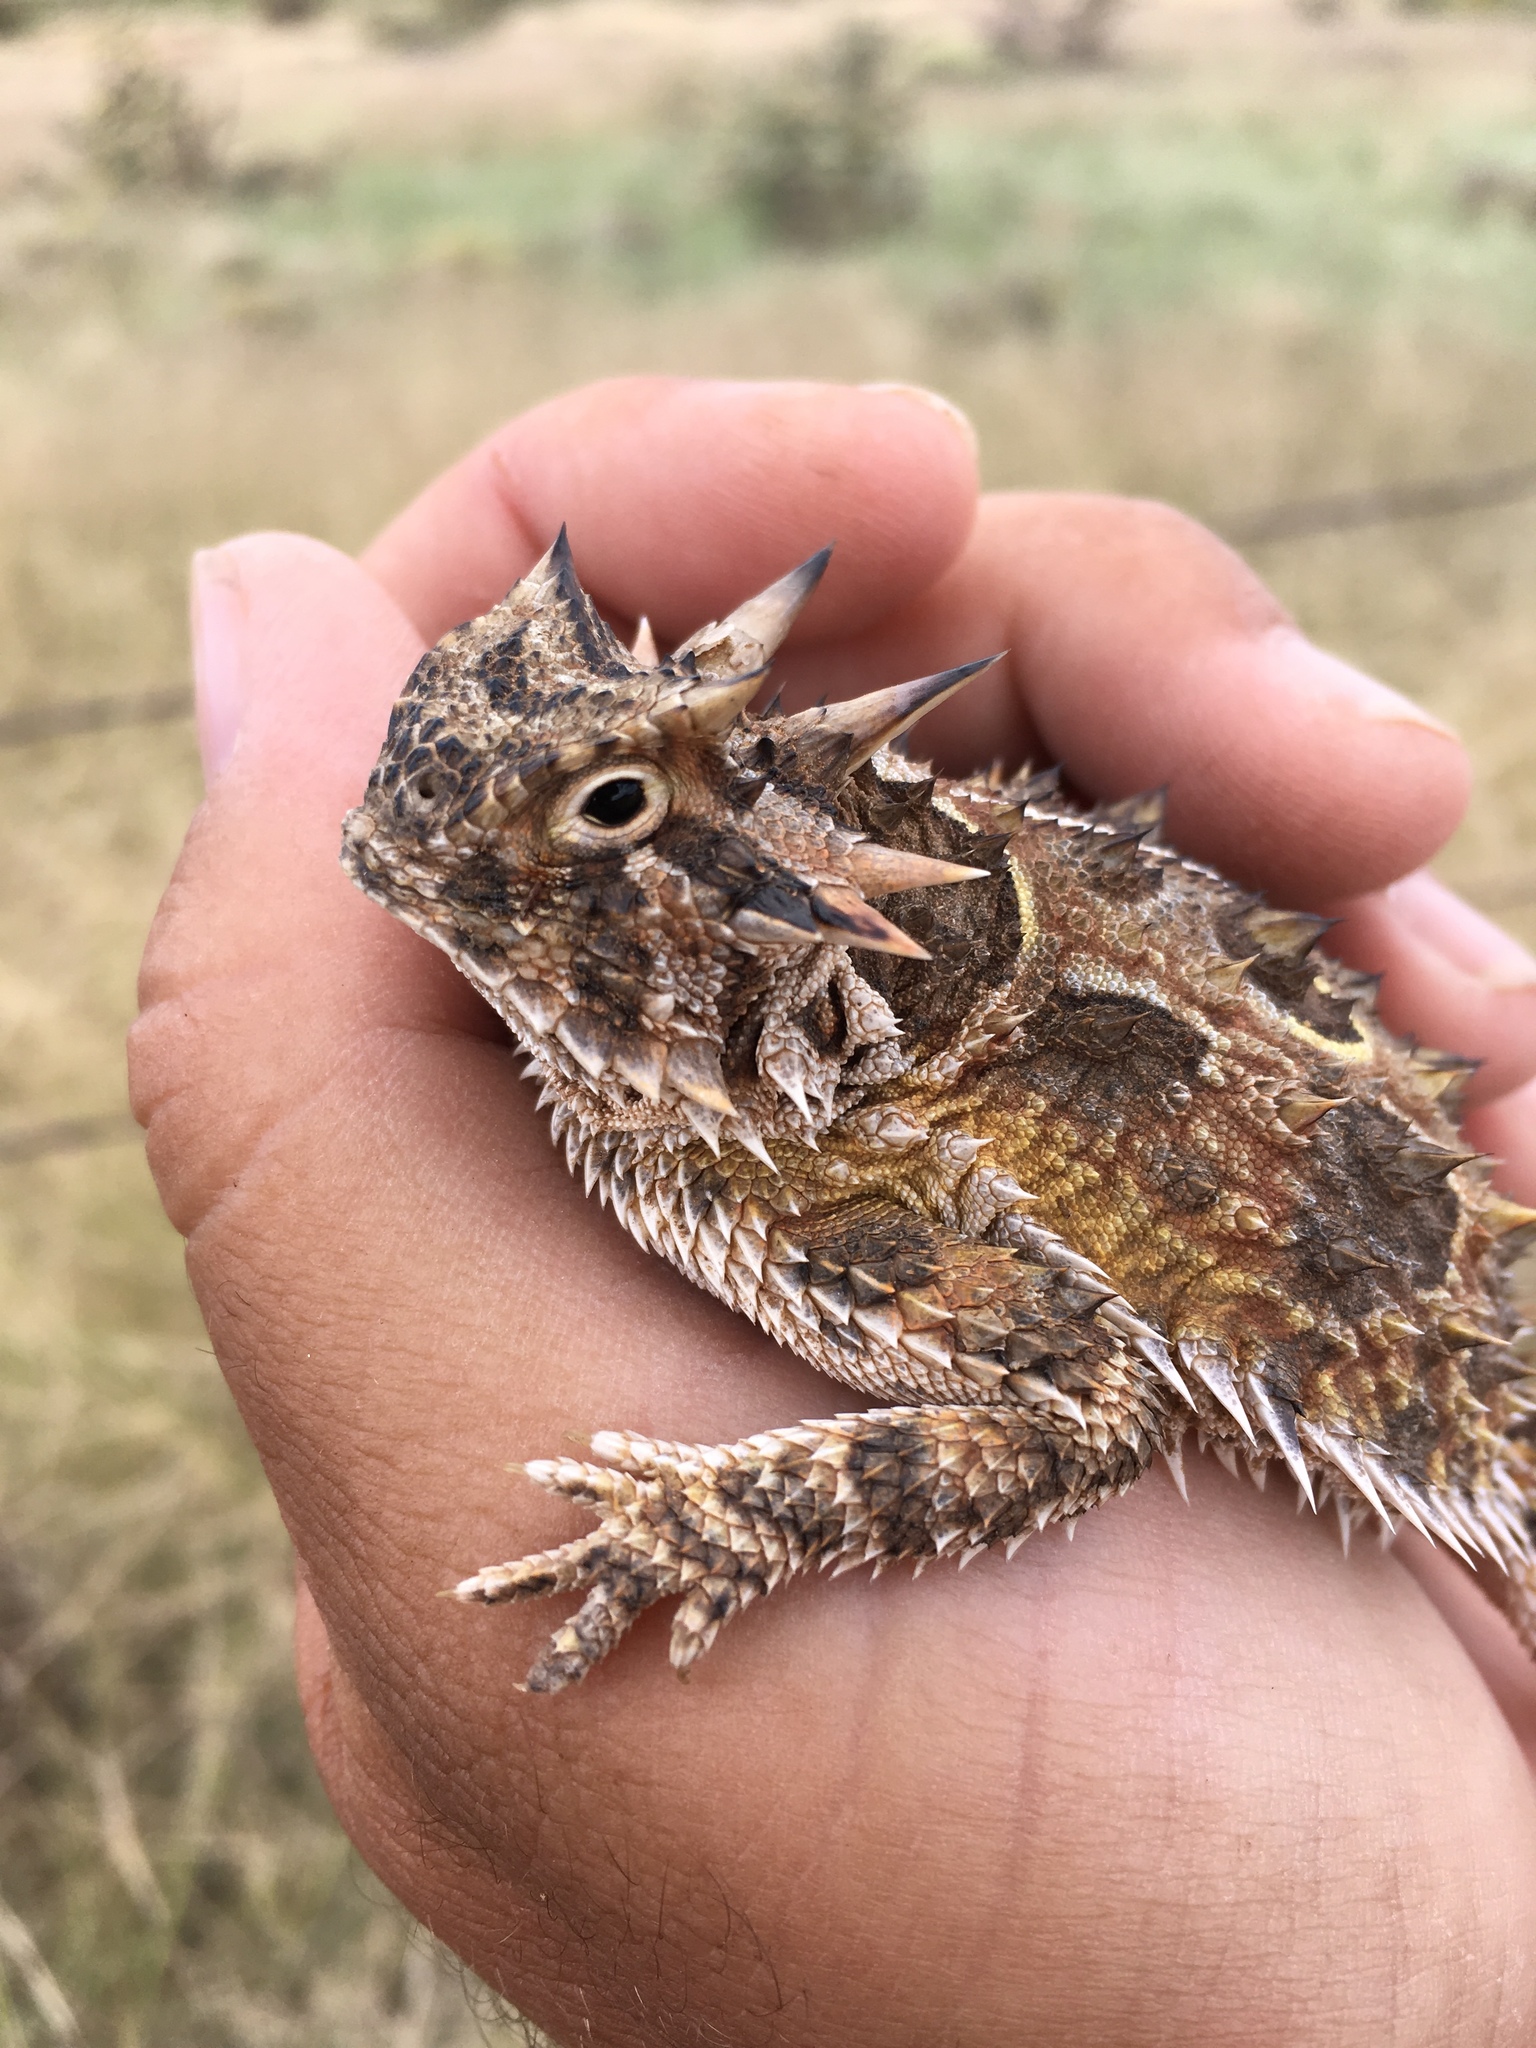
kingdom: Animalia
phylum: Chordata
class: Squamata
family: Phrynosomatidae
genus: Phrynosoma
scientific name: Phrynosoma cornutum
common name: Texas horned lizard
